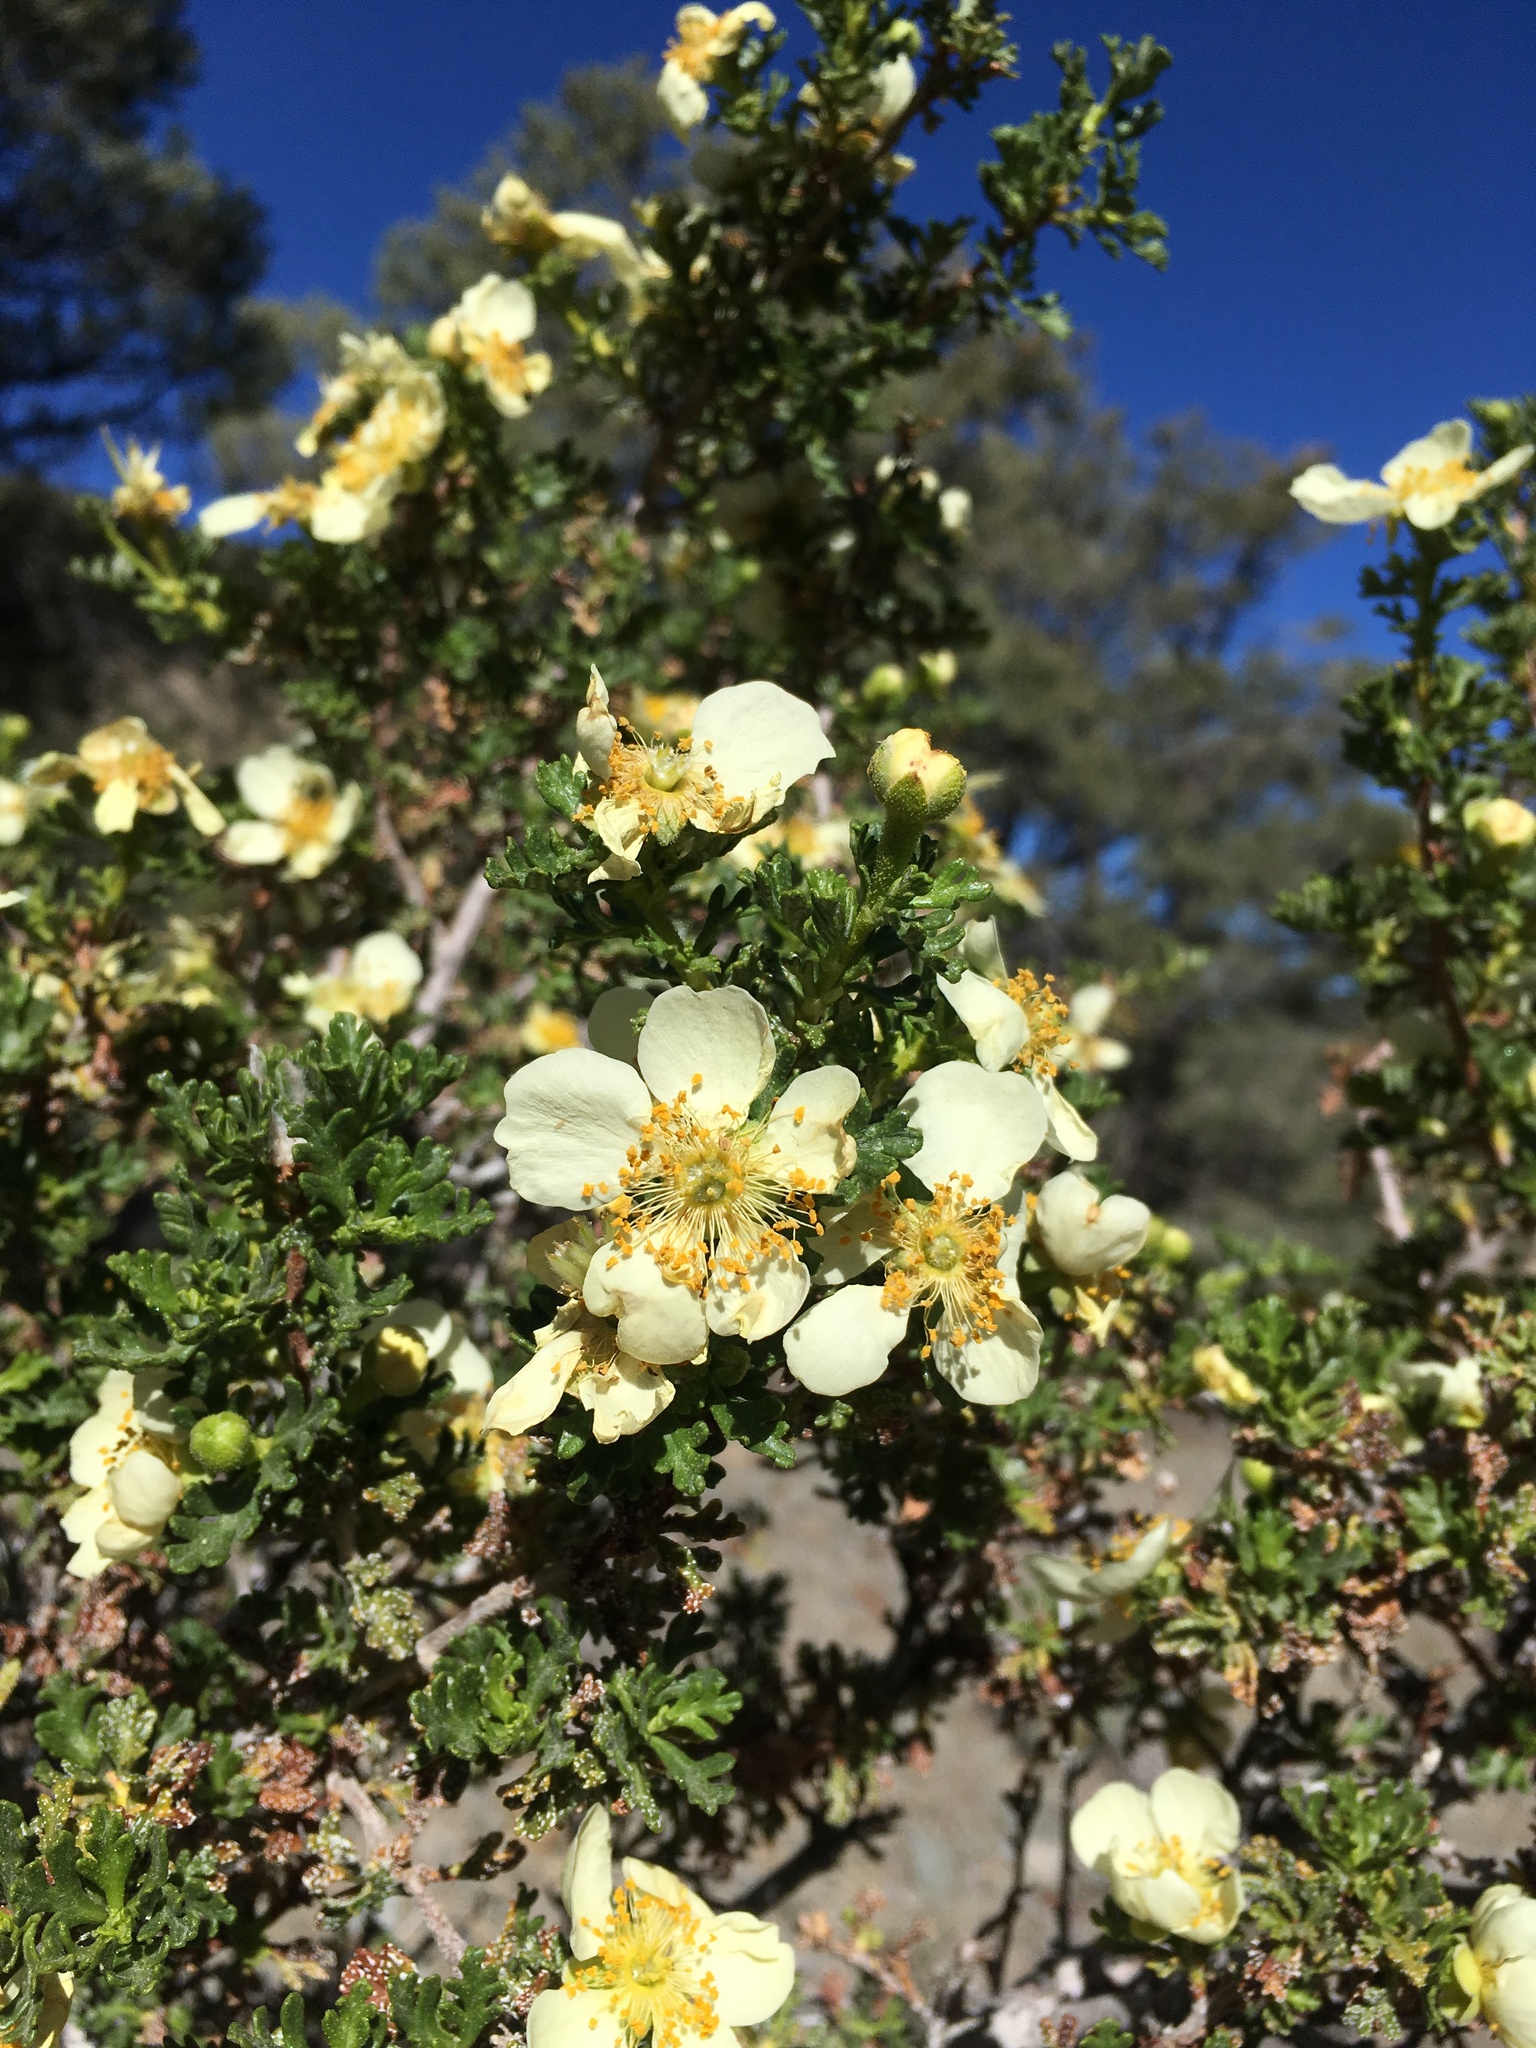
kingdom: Plantae
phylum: Tracheophyta
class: Magnoliopsida
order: Rosales
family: Rosaceae
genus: Purshia
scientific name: Purshia stansburiana
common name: Stansbury's cliffrose
